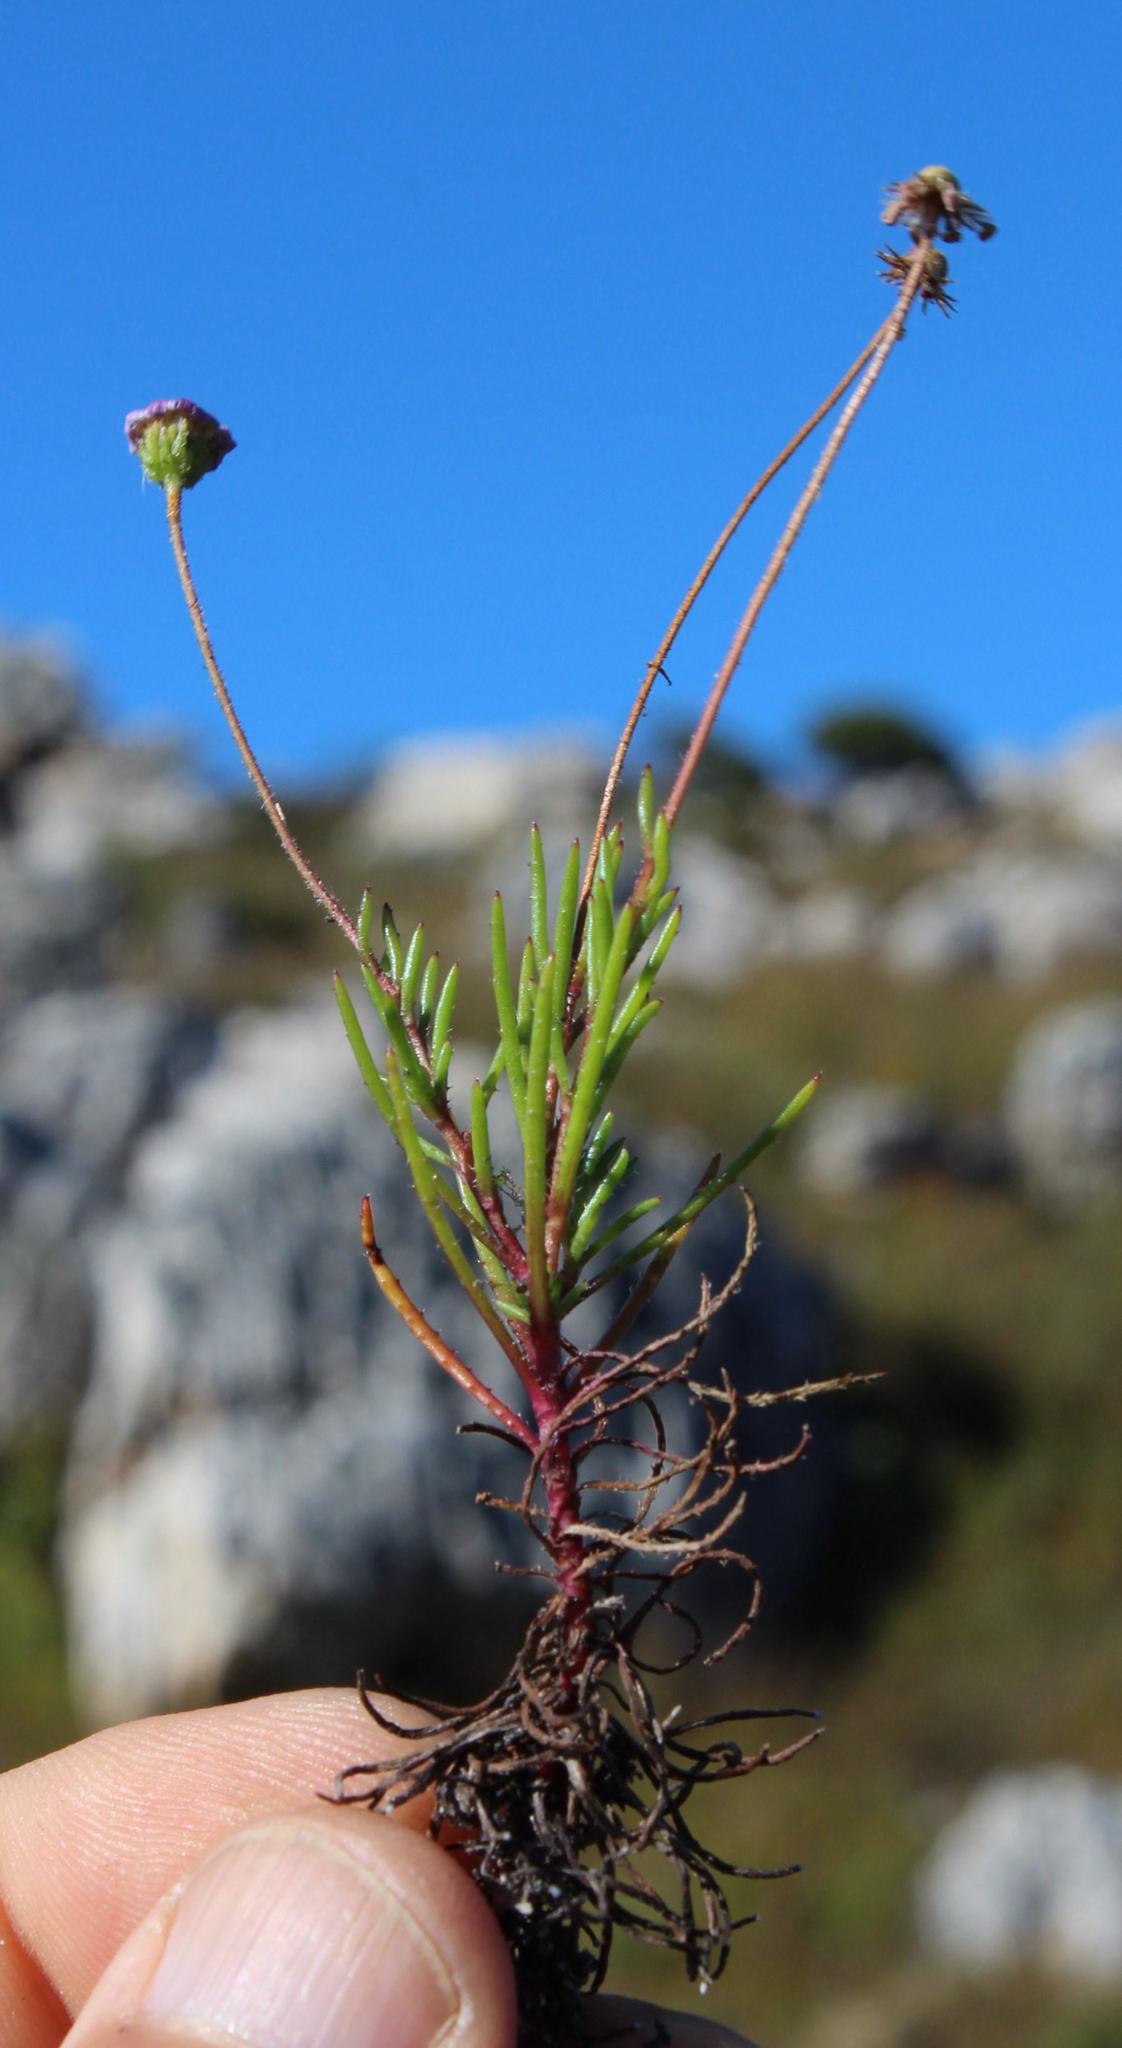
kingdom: Plantae
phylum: Tracheophyta
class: Magnoliopsida
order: Asterales
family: Asteraceae
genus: Felicia
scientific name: Felicia tenella
